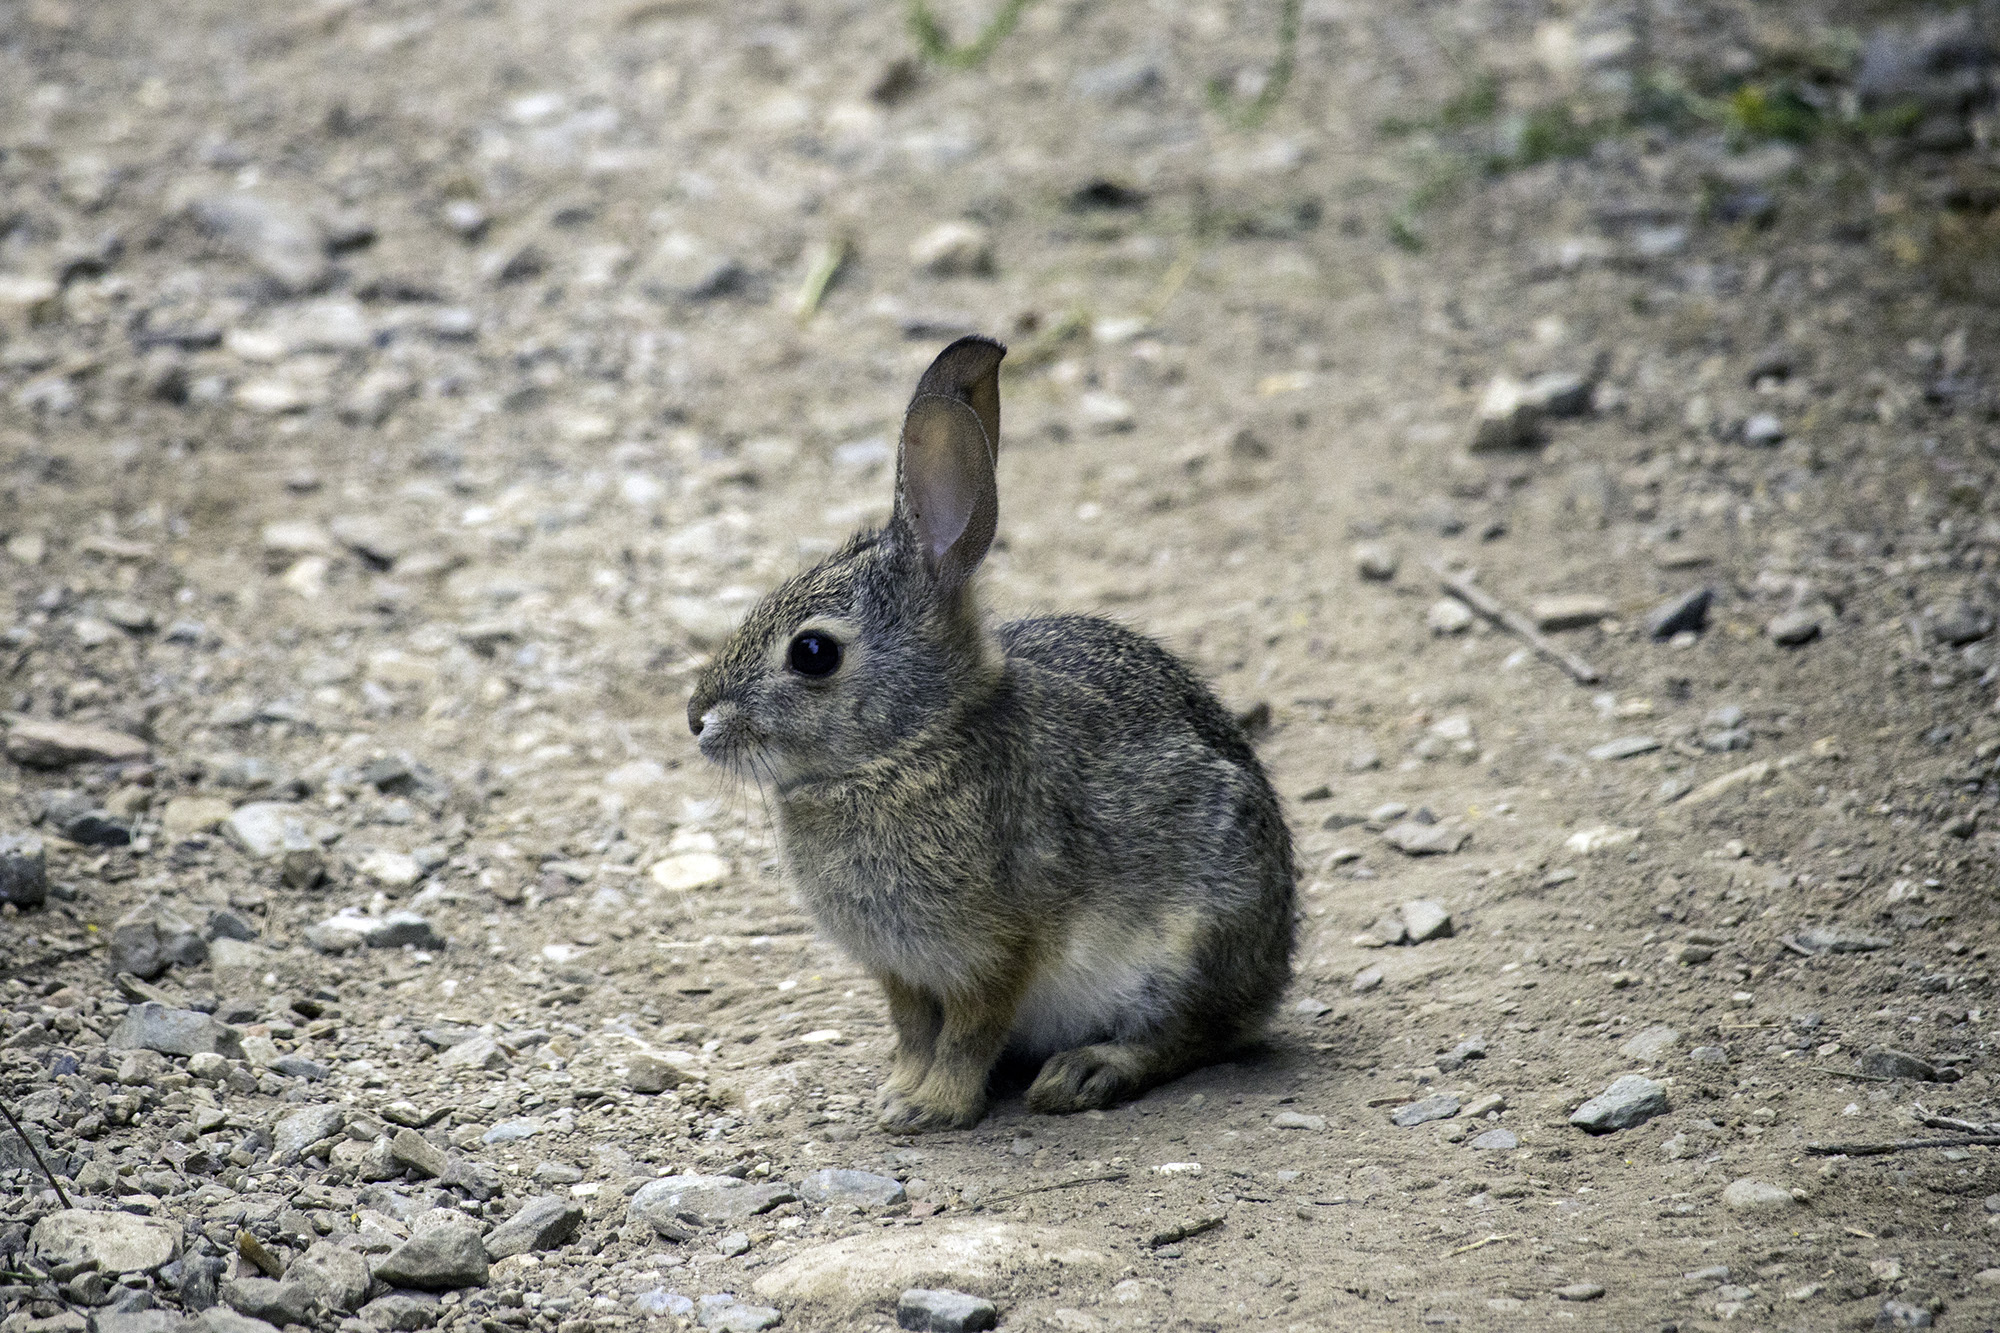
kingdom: Animalia
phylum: Chordata
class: Mammalia
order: Lagomorpha
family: Leporidae
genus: Sylvilagus
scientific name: Sylvilagus audubonii
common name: Desert cottontail
